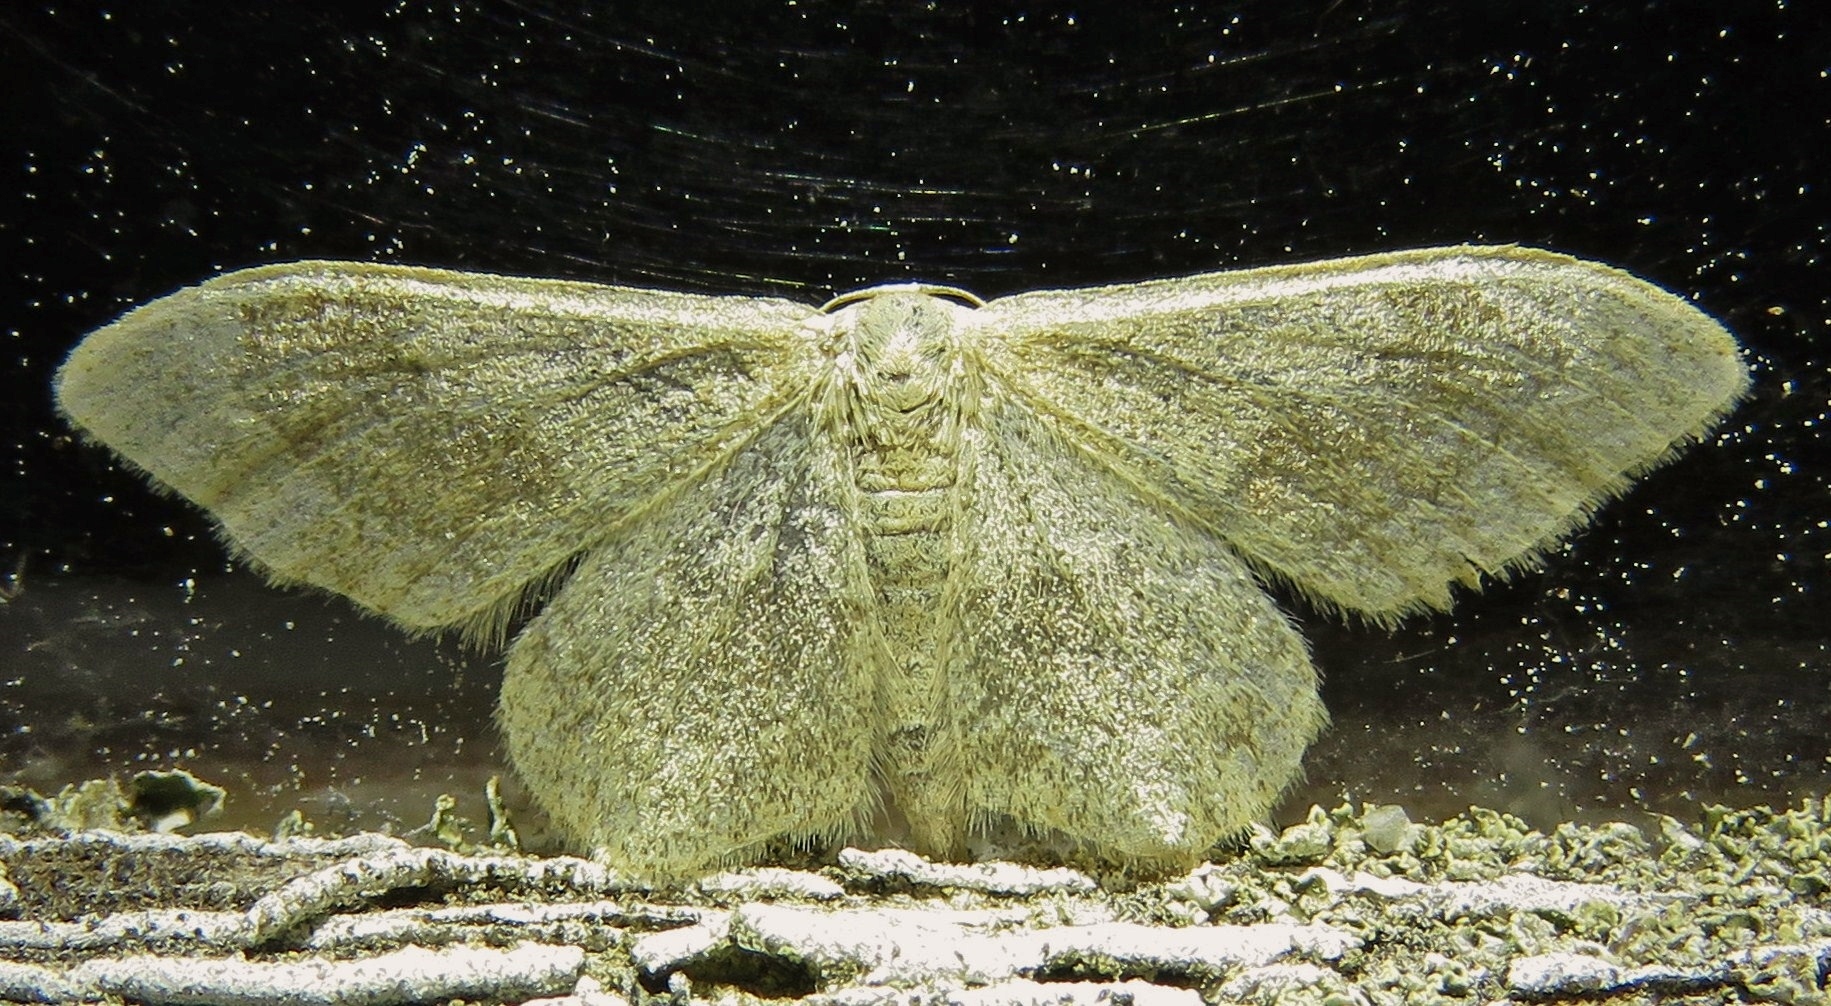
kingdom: Animalia
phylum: Arthropoda
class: Insecta
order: Lepidoptera
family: Geometridae
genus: Idaea
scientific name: Idaea aversata
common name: Riband wave
